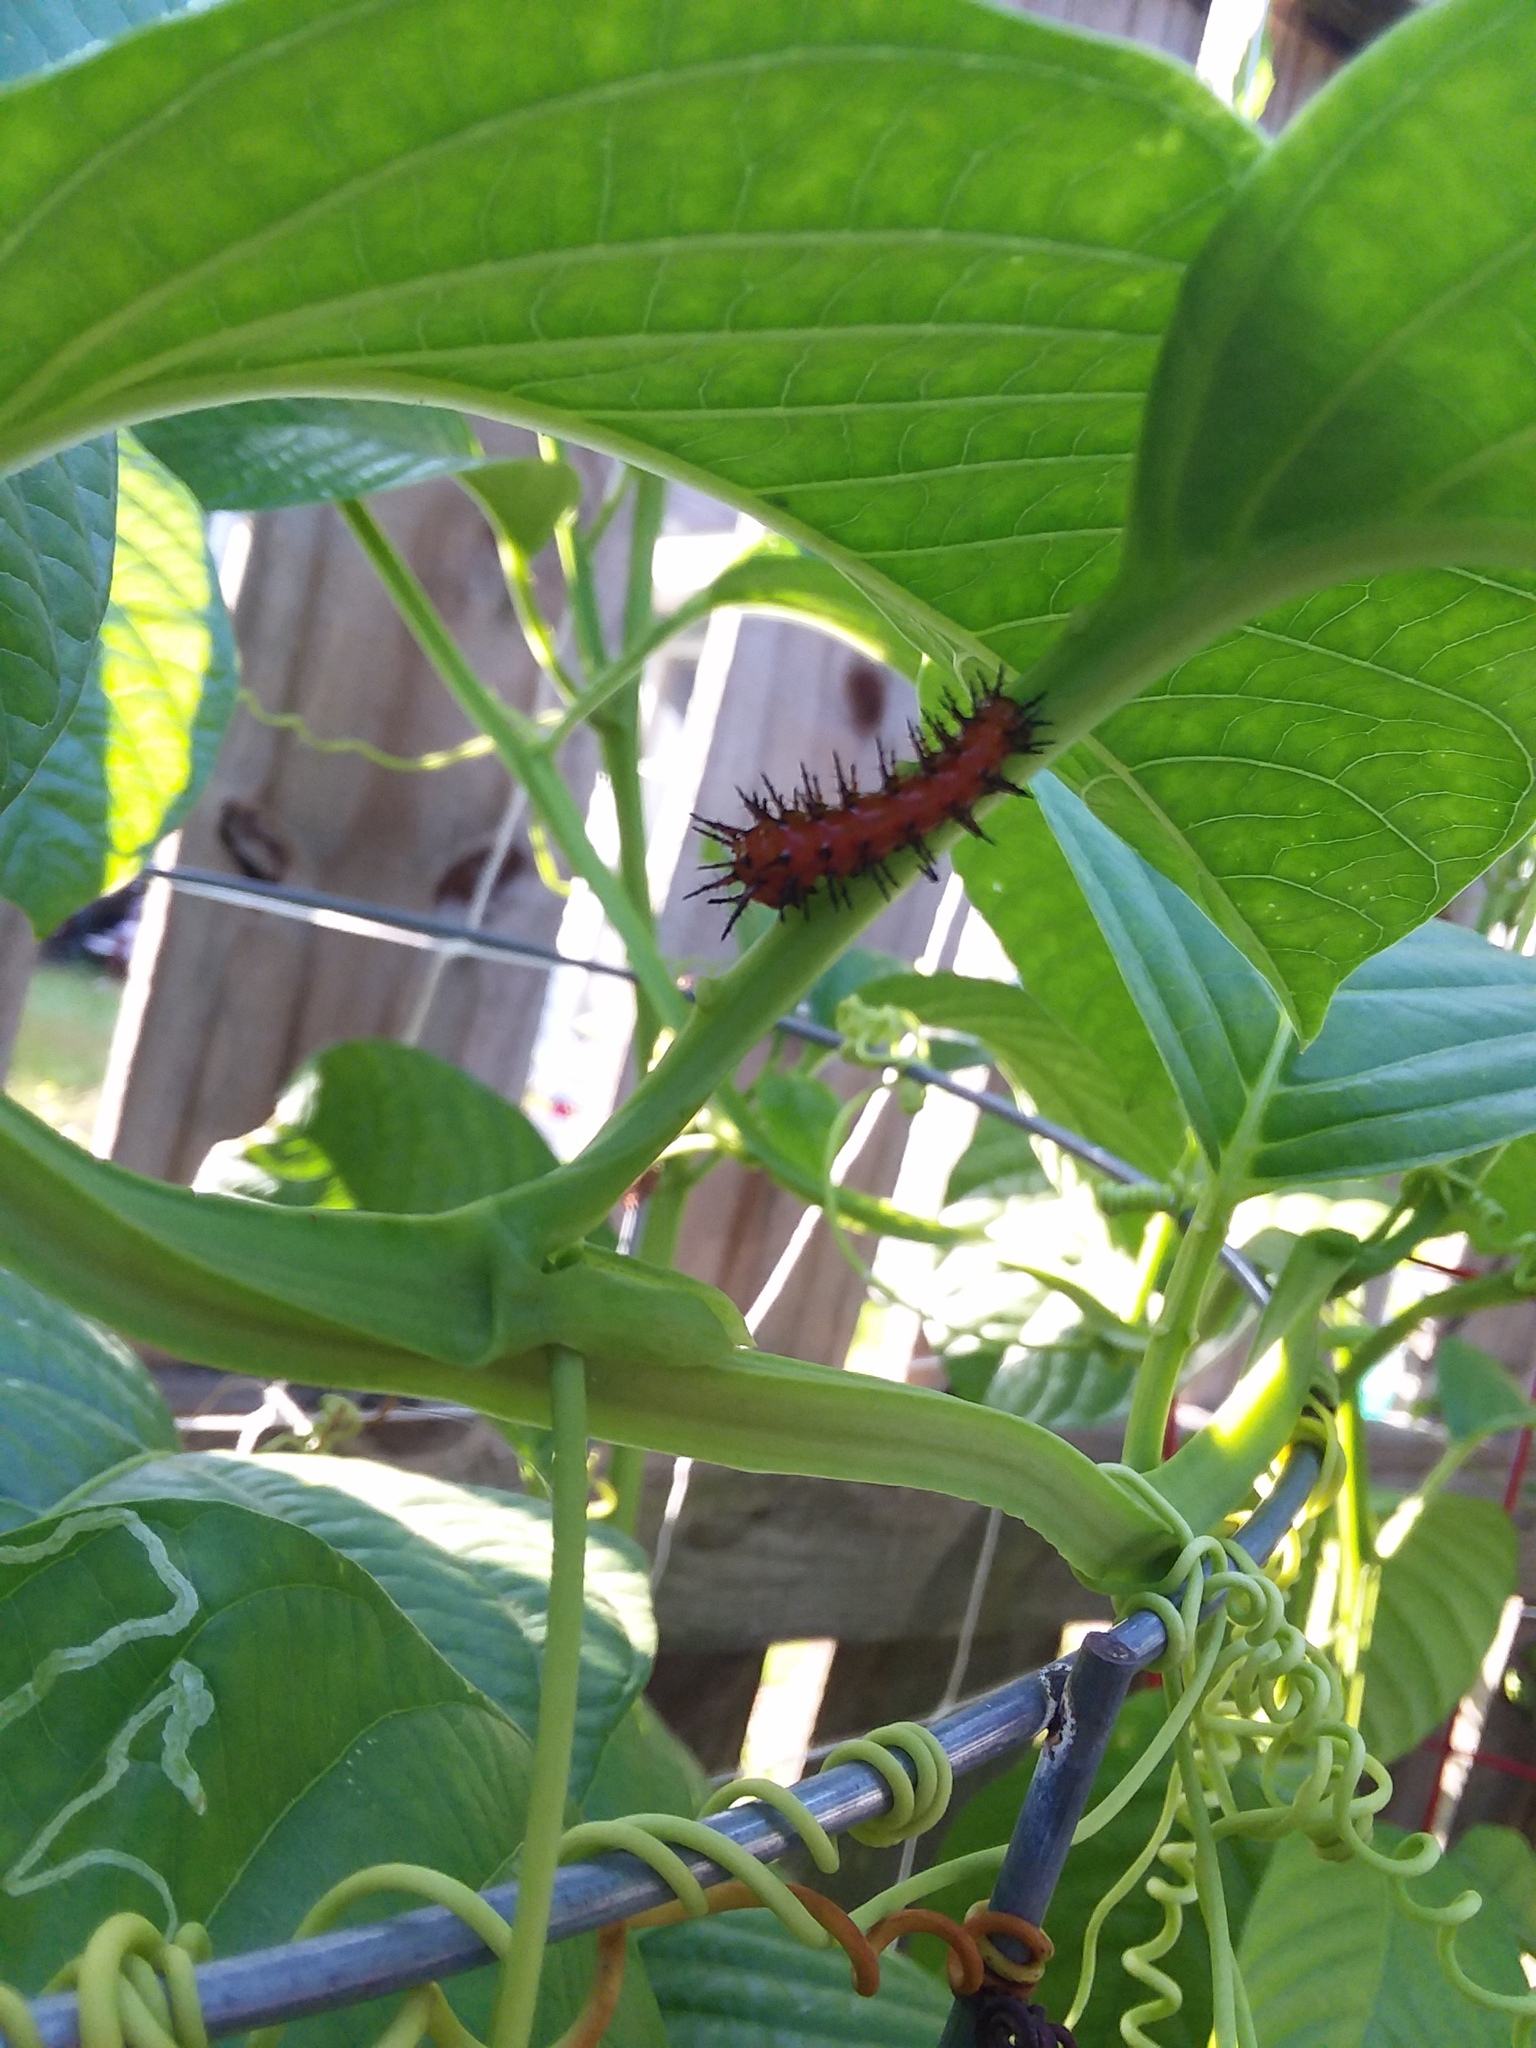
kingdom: Animalia
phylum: Arthropoda
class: Insecta
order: Lepidoptera
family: Nymphalidae
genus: Dione
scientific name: Dione vanillae
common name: Gulf fritillary
